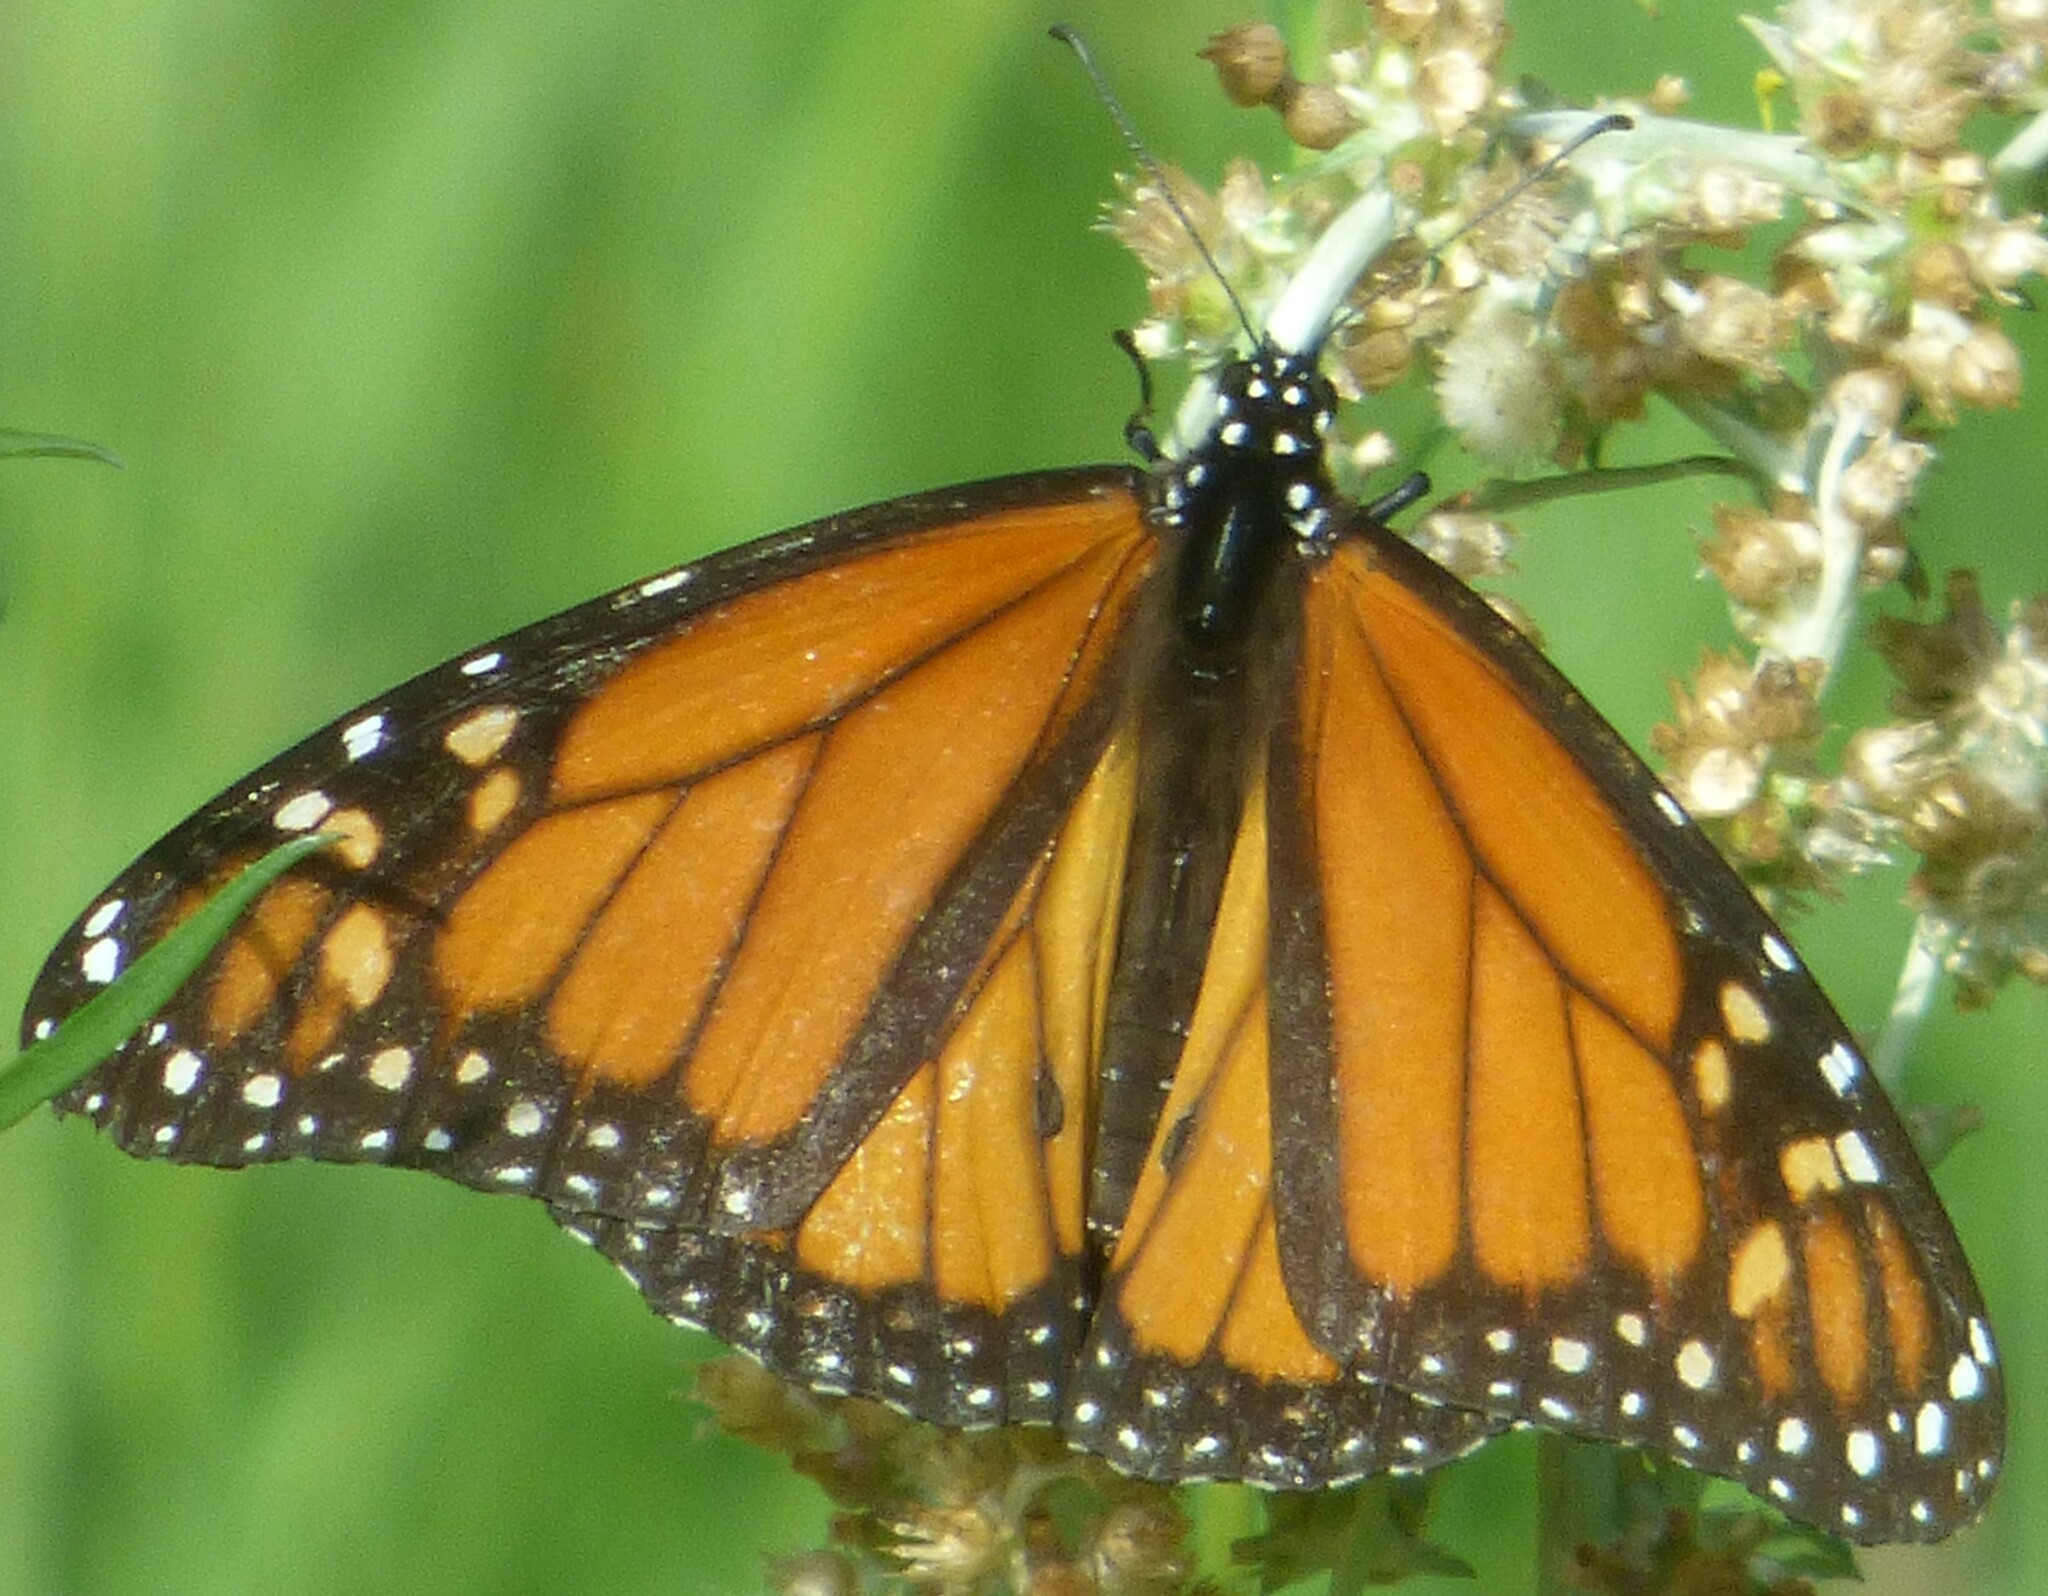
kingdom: Animalia
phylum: Arthropoda
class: Insecta
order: Lepidoptera
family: Nymphalidae
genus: Danaus
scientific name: Danaus plexippus
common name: Monarch
